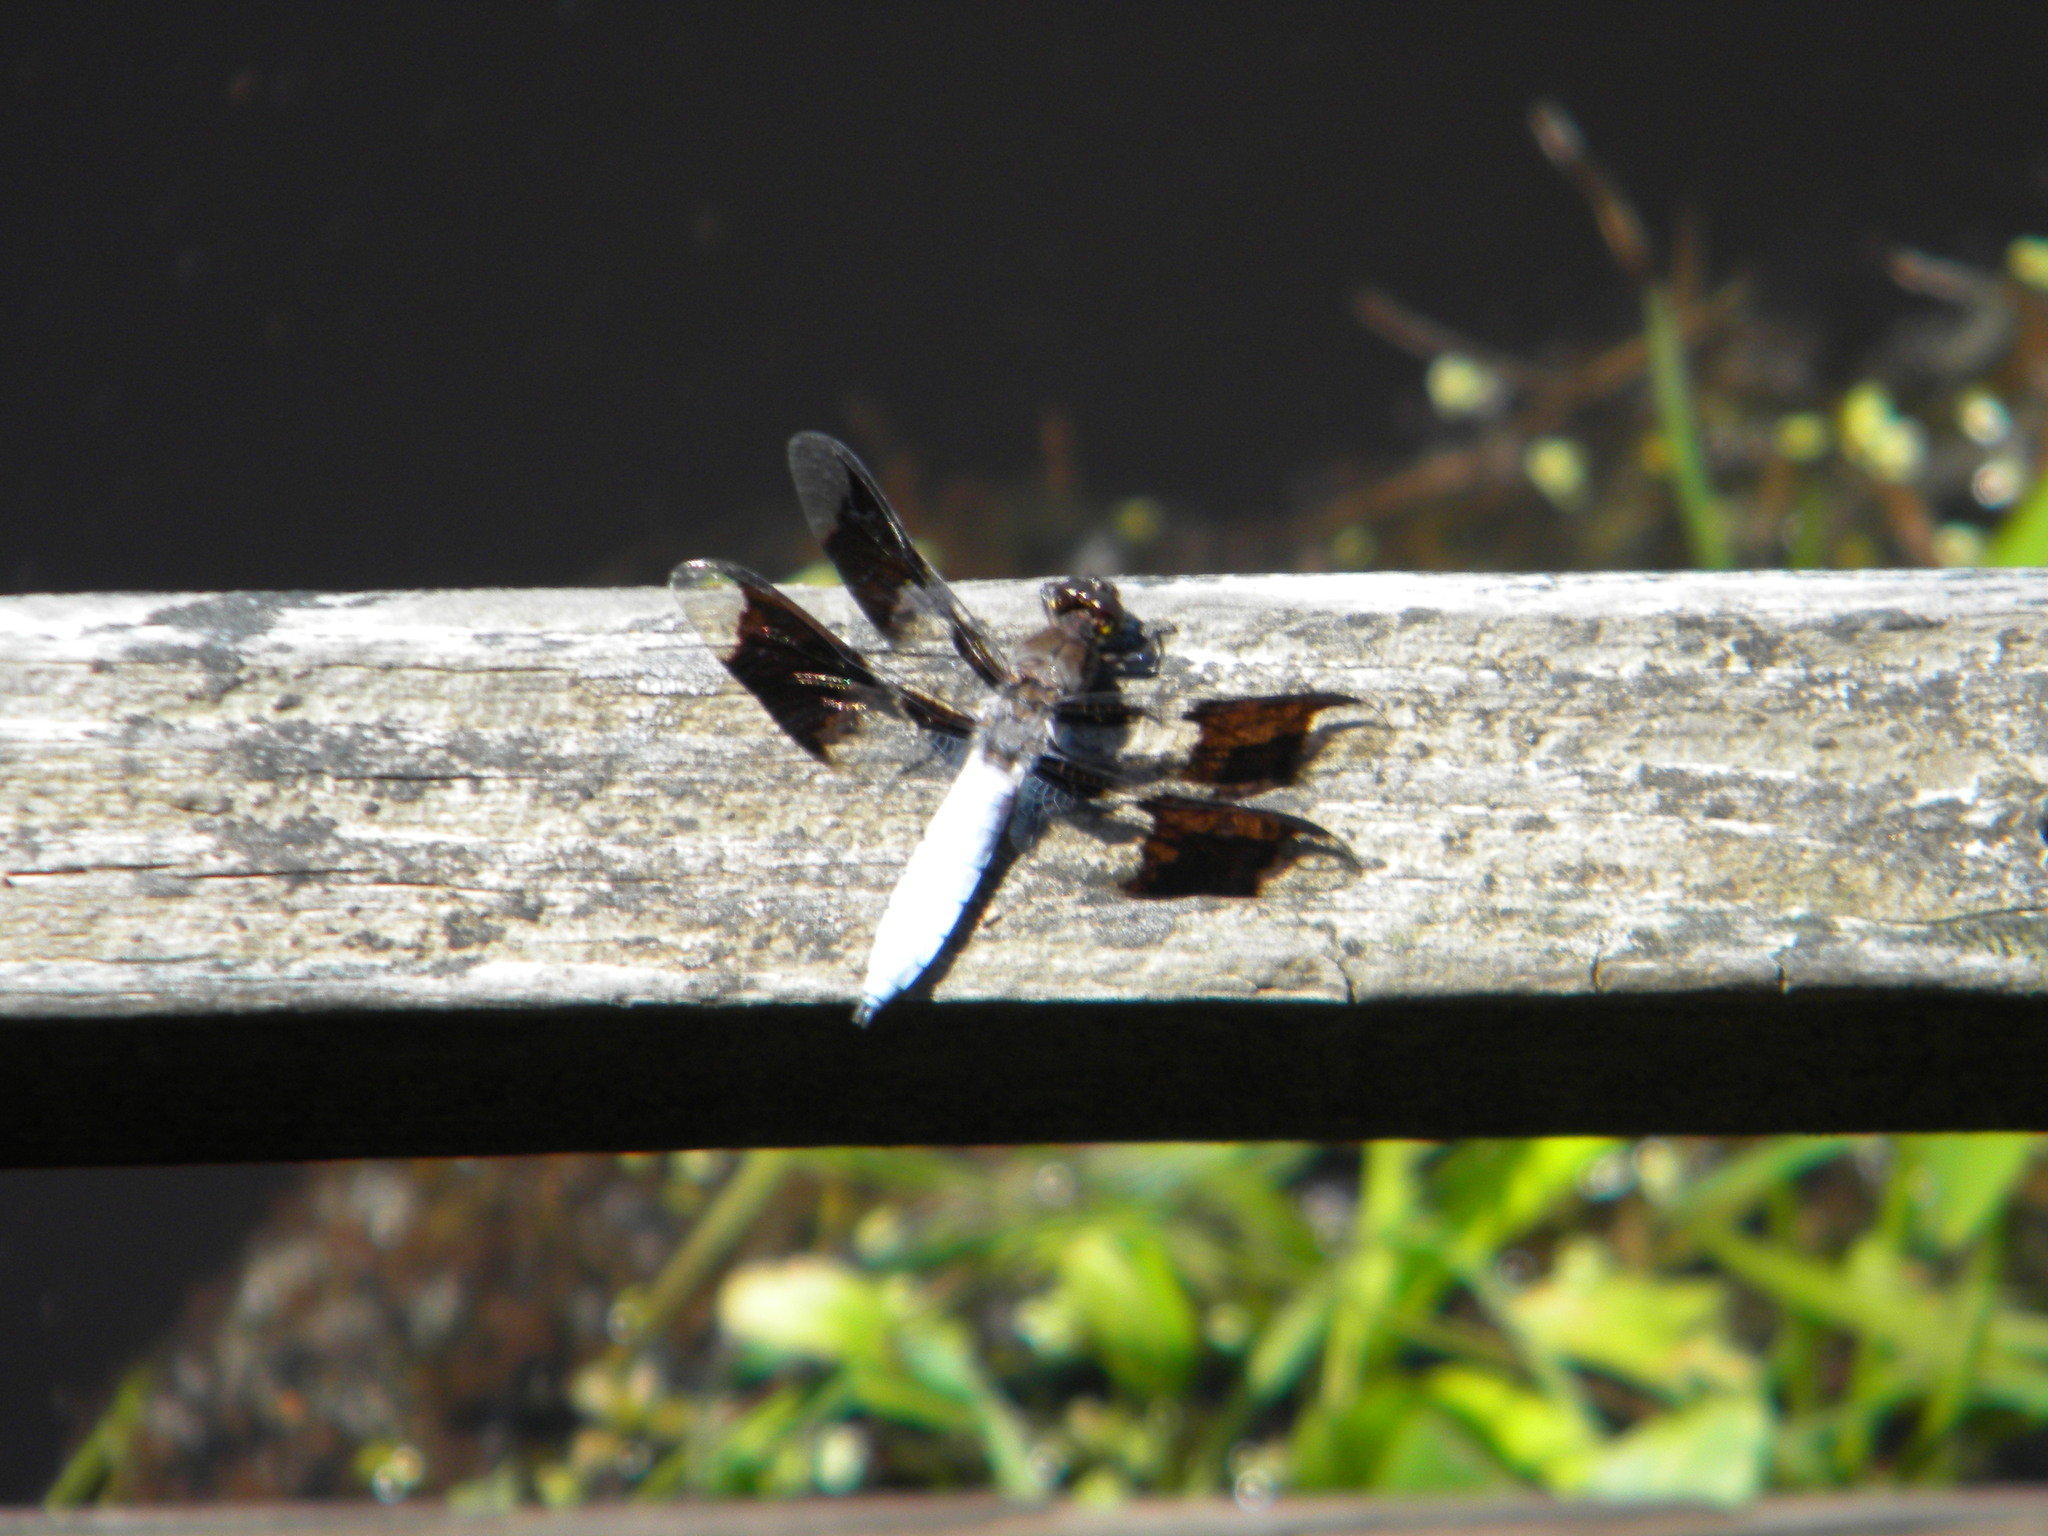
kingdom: Animalia
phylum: Arthropoda
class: Insecta
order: Odonata
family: Libellulidae
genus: Plathemis
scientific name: Plathemis lydia
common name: Common whitetail
